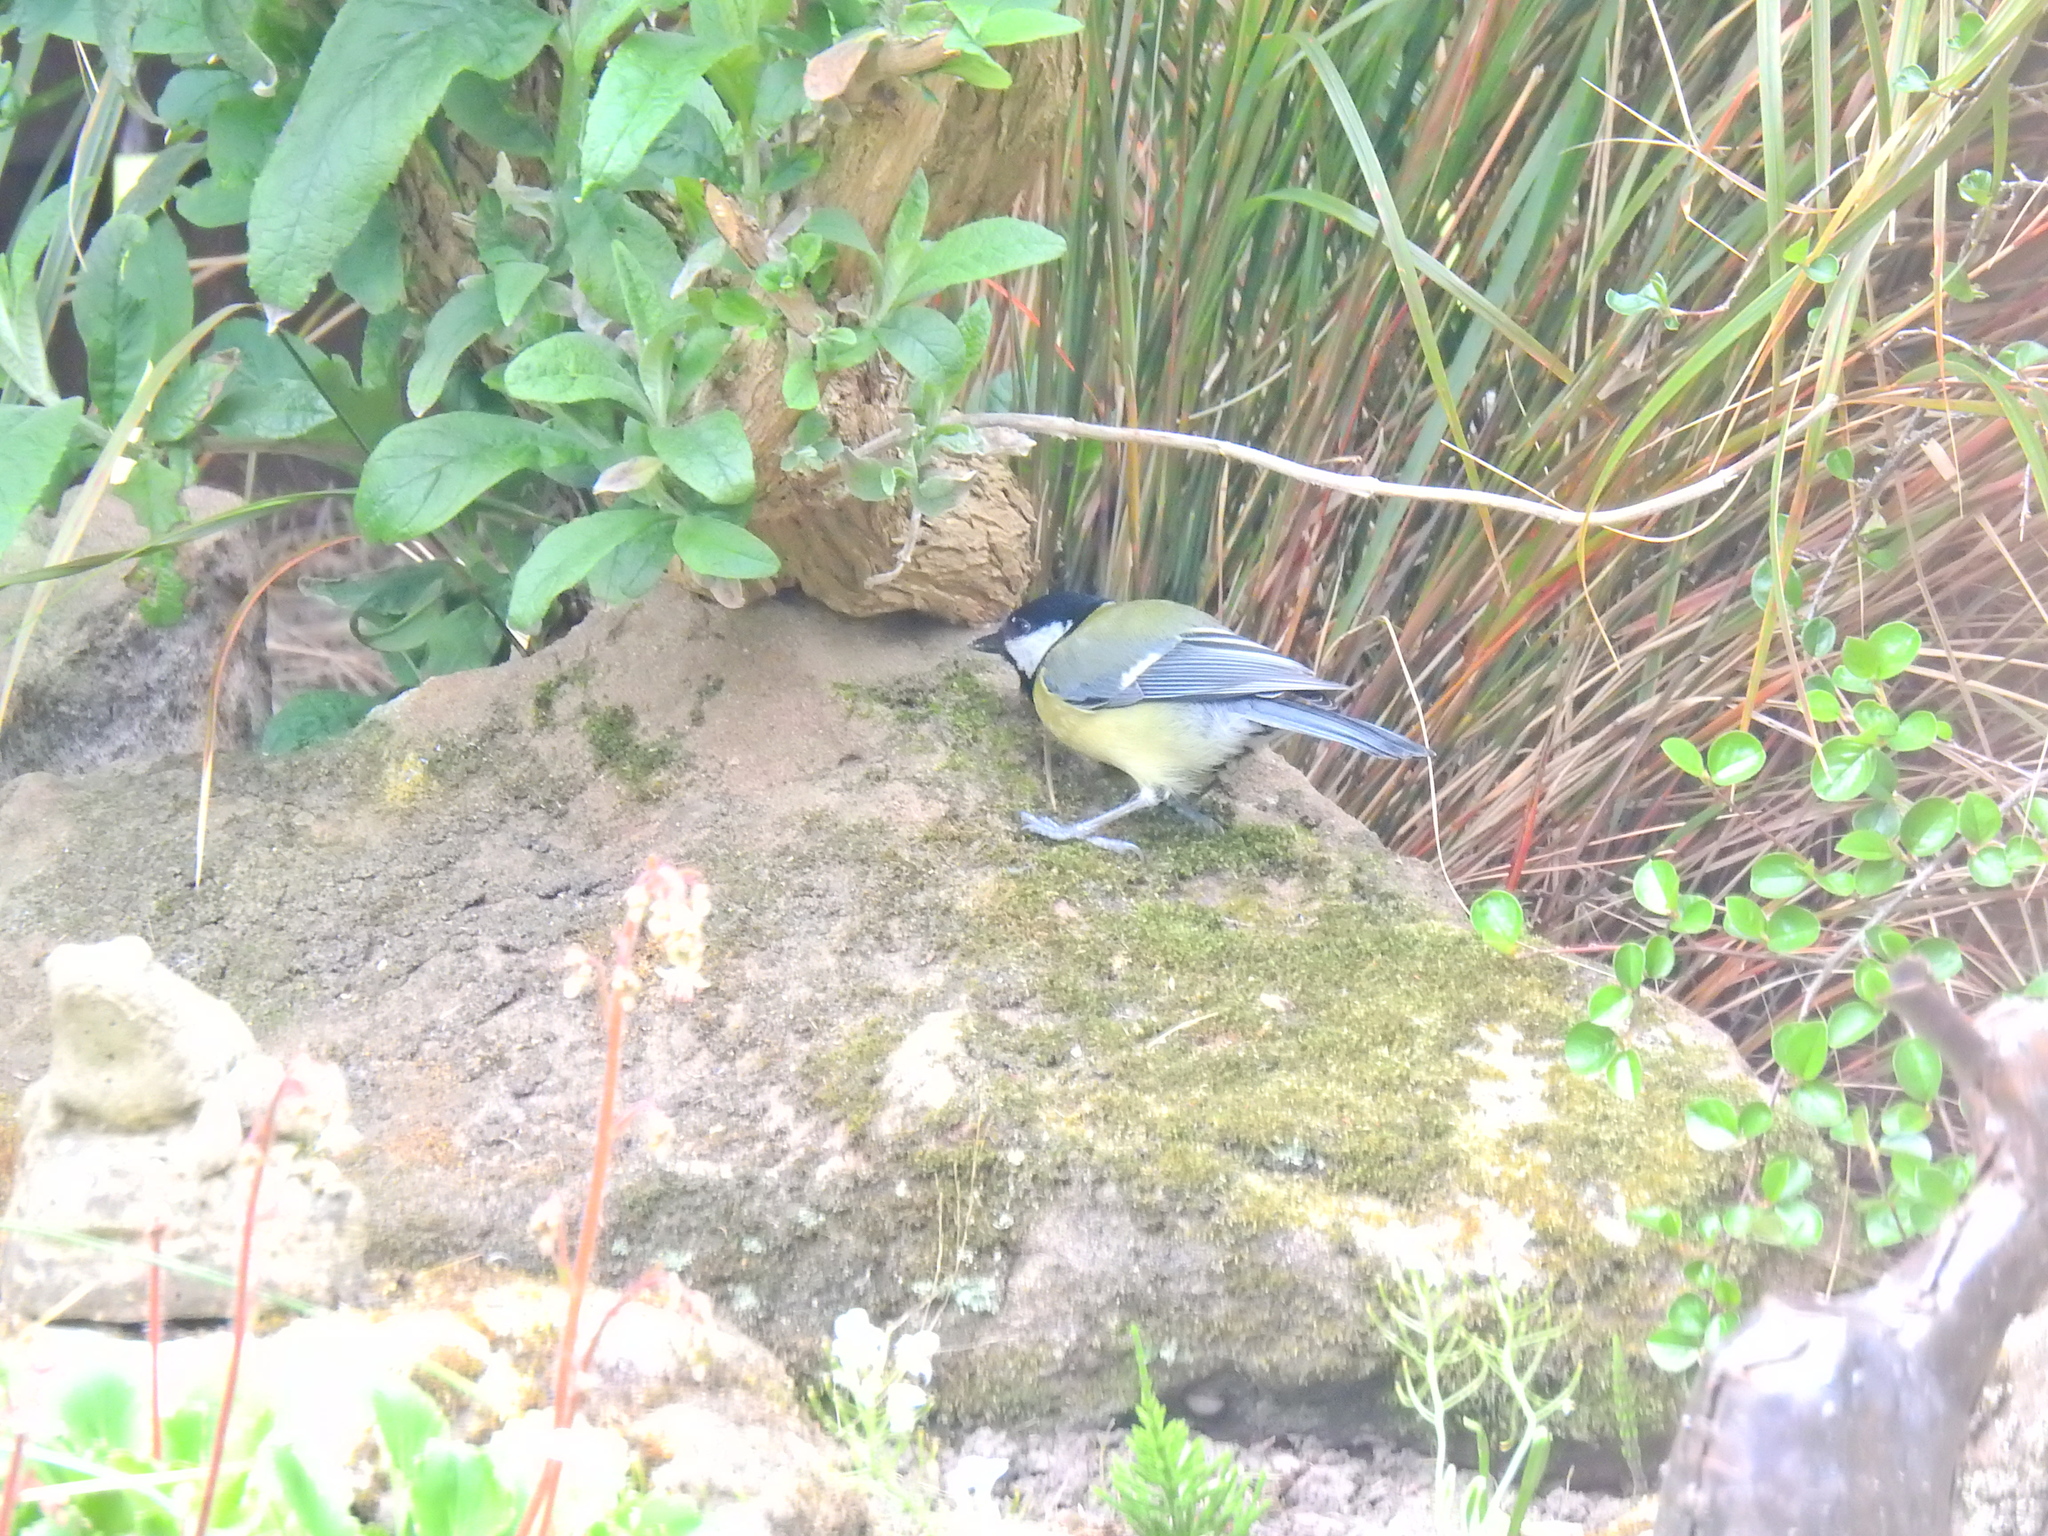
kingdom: Animalia
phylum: Chordata
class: Aves
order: Passeriformes
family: Paridae
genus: Parus
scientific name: Parus major
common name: Great tit
